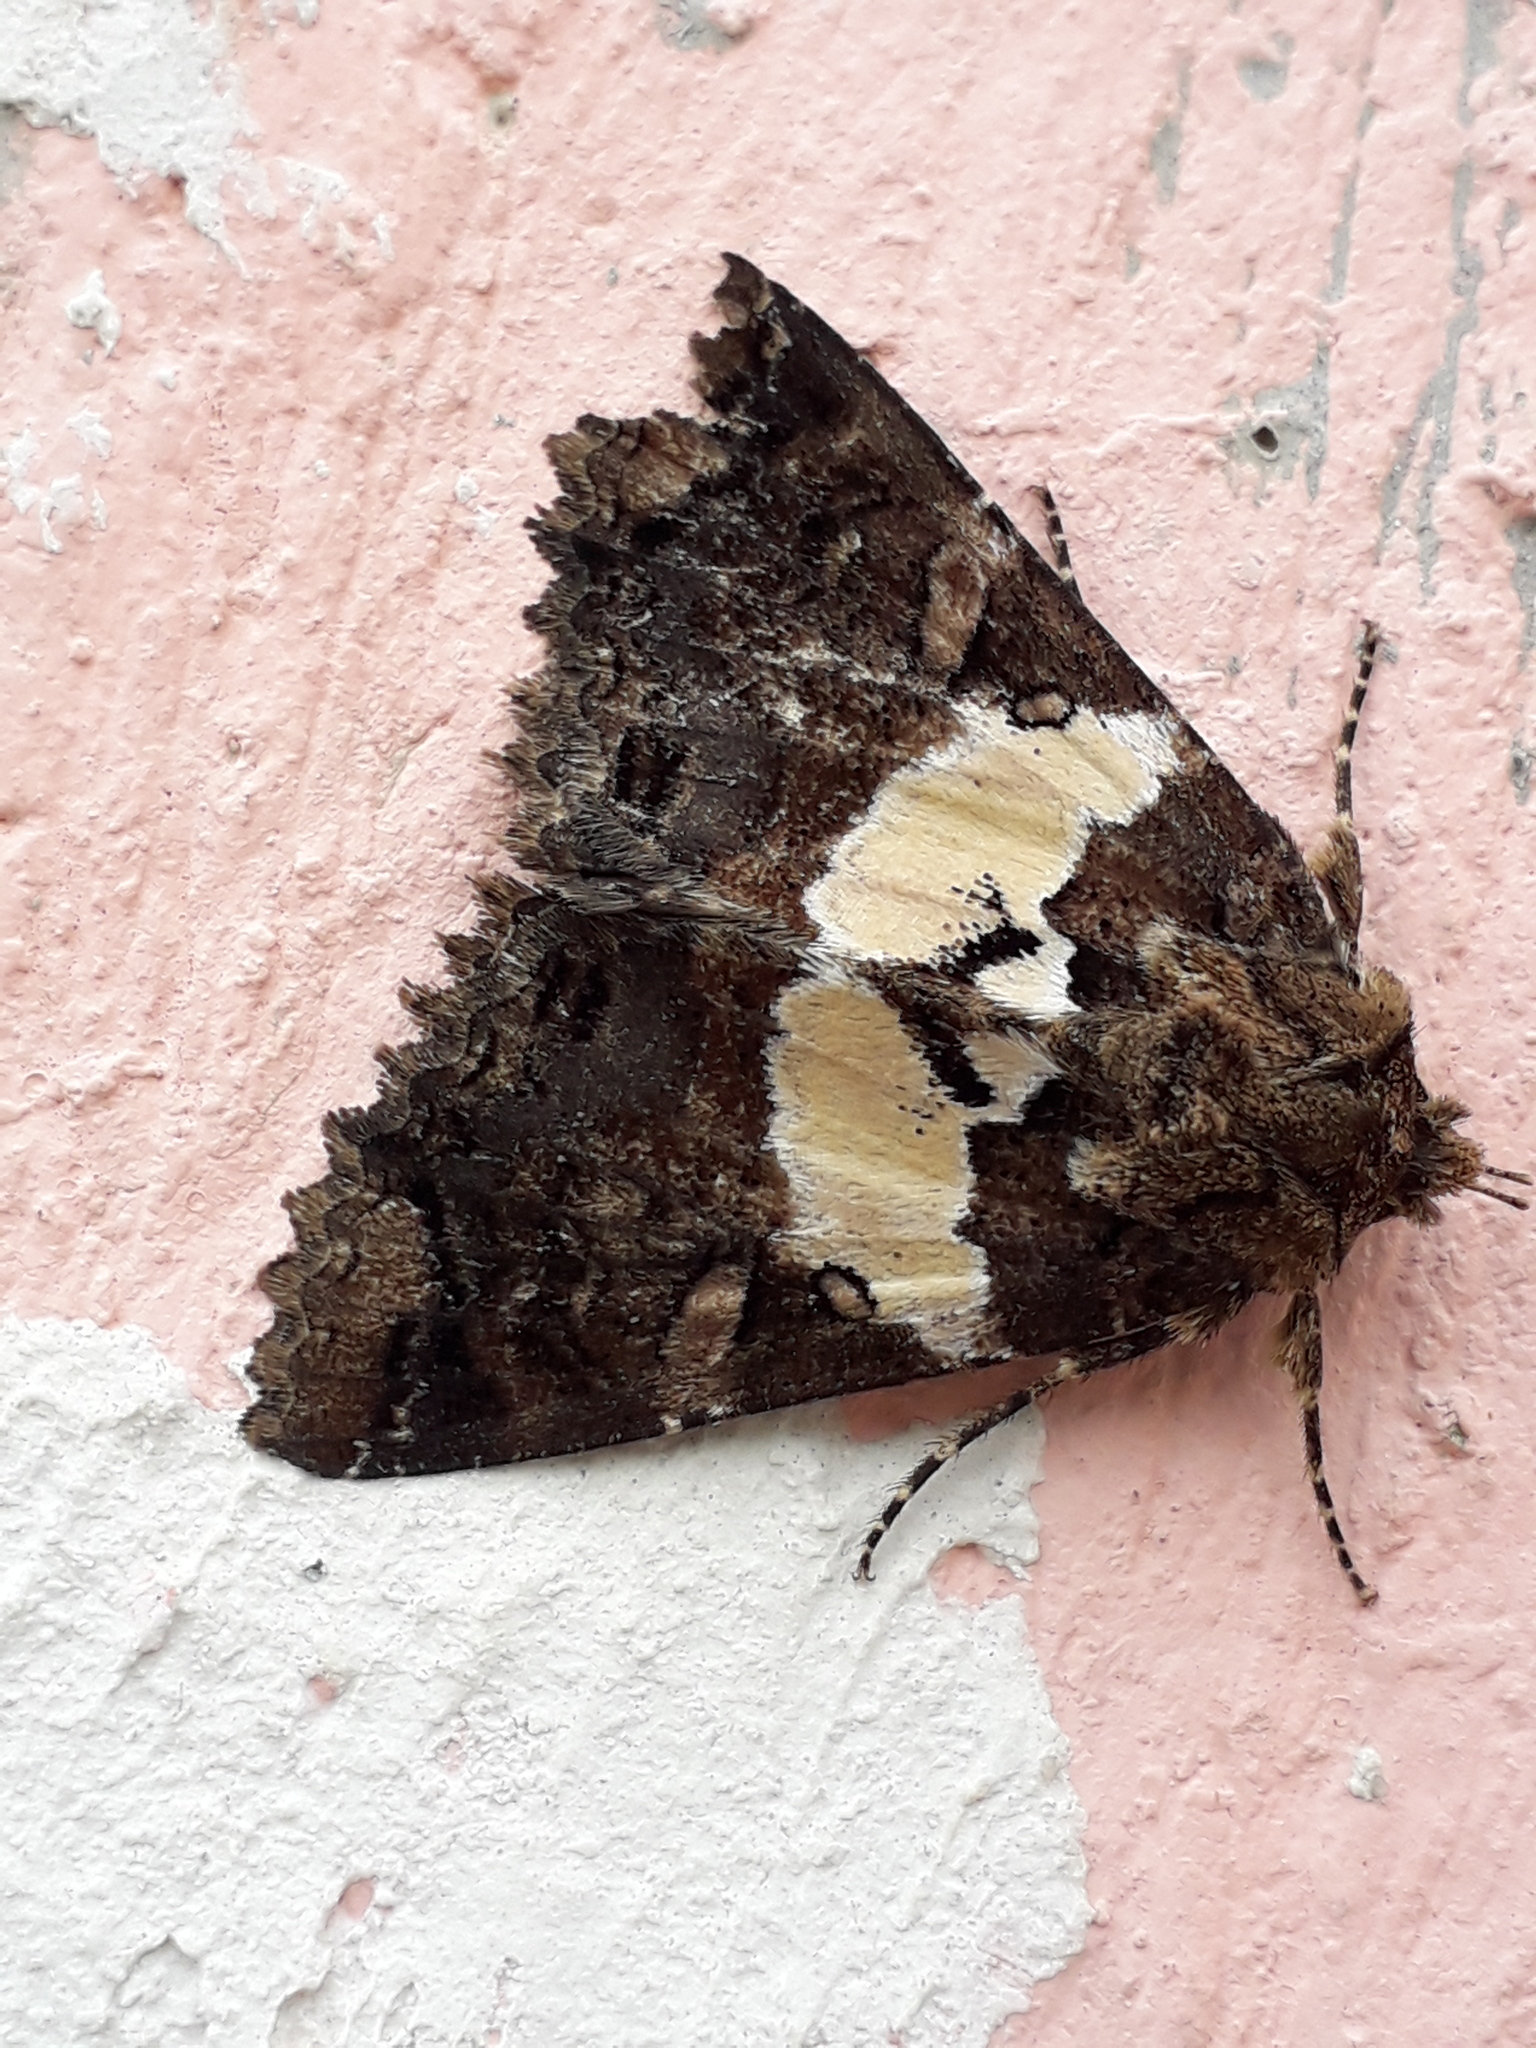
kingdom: Animalia
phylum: Arthropoda
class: Insecta
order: Lepidoptera
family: Erebidae
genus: Safidia
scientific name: Safidia druceria
